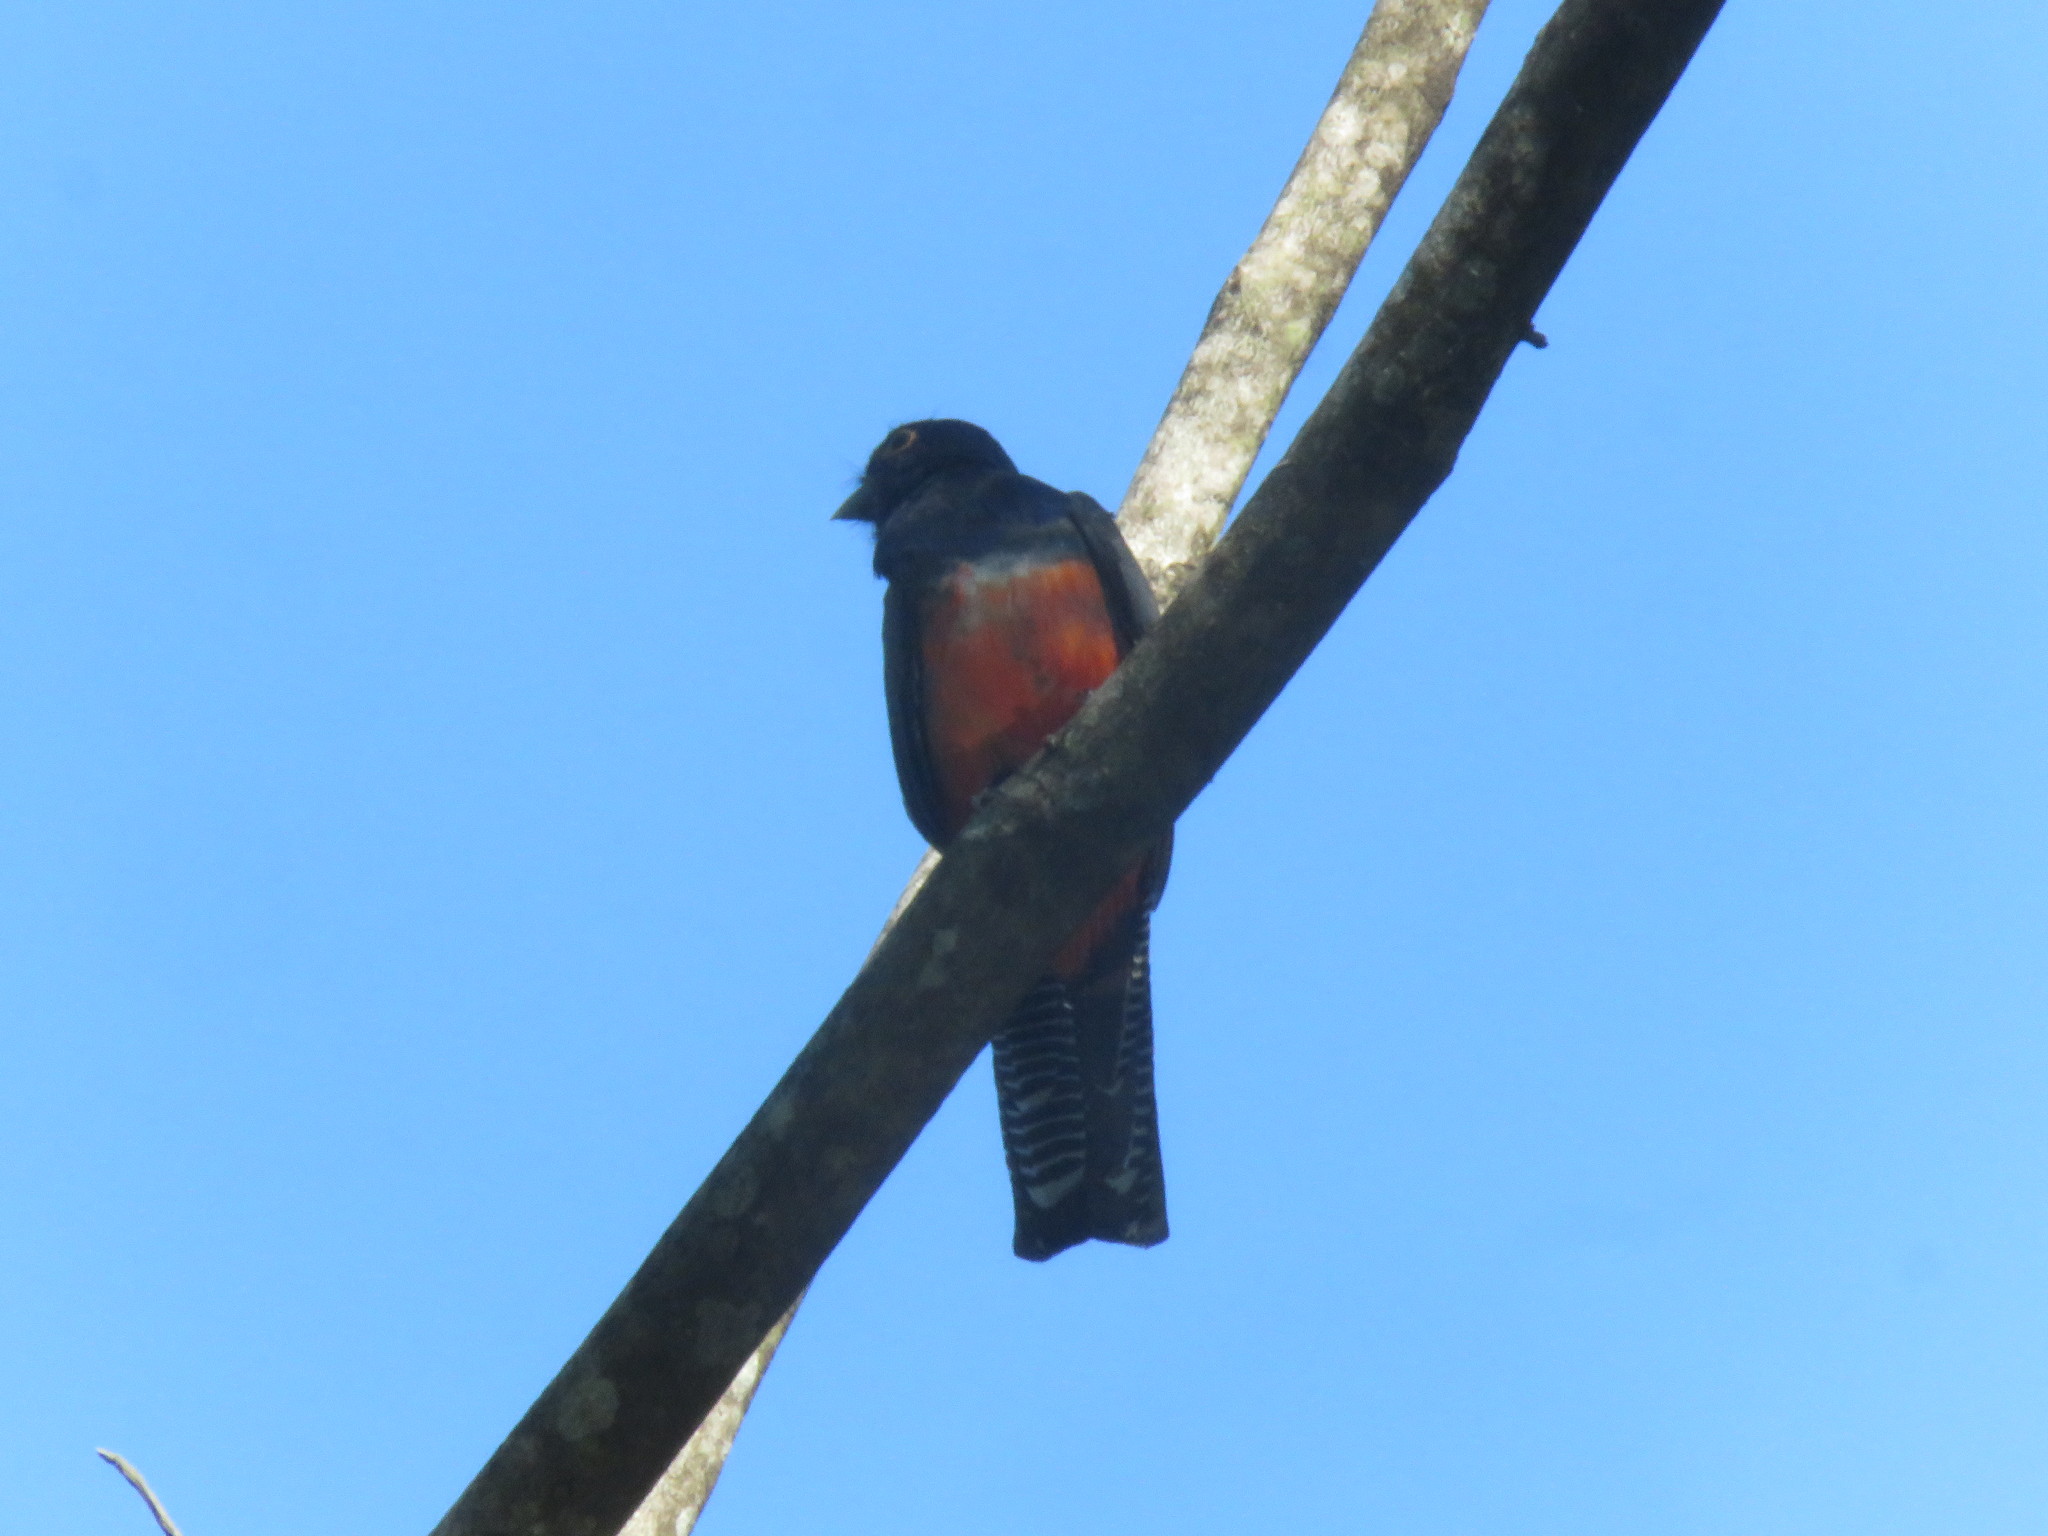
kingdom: Animalia
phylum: Chordata
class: Aves
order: Trogoniformes
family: Trogonidae
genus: Trogon
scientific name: Trogon curucui
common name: Blue-crowned trogon
